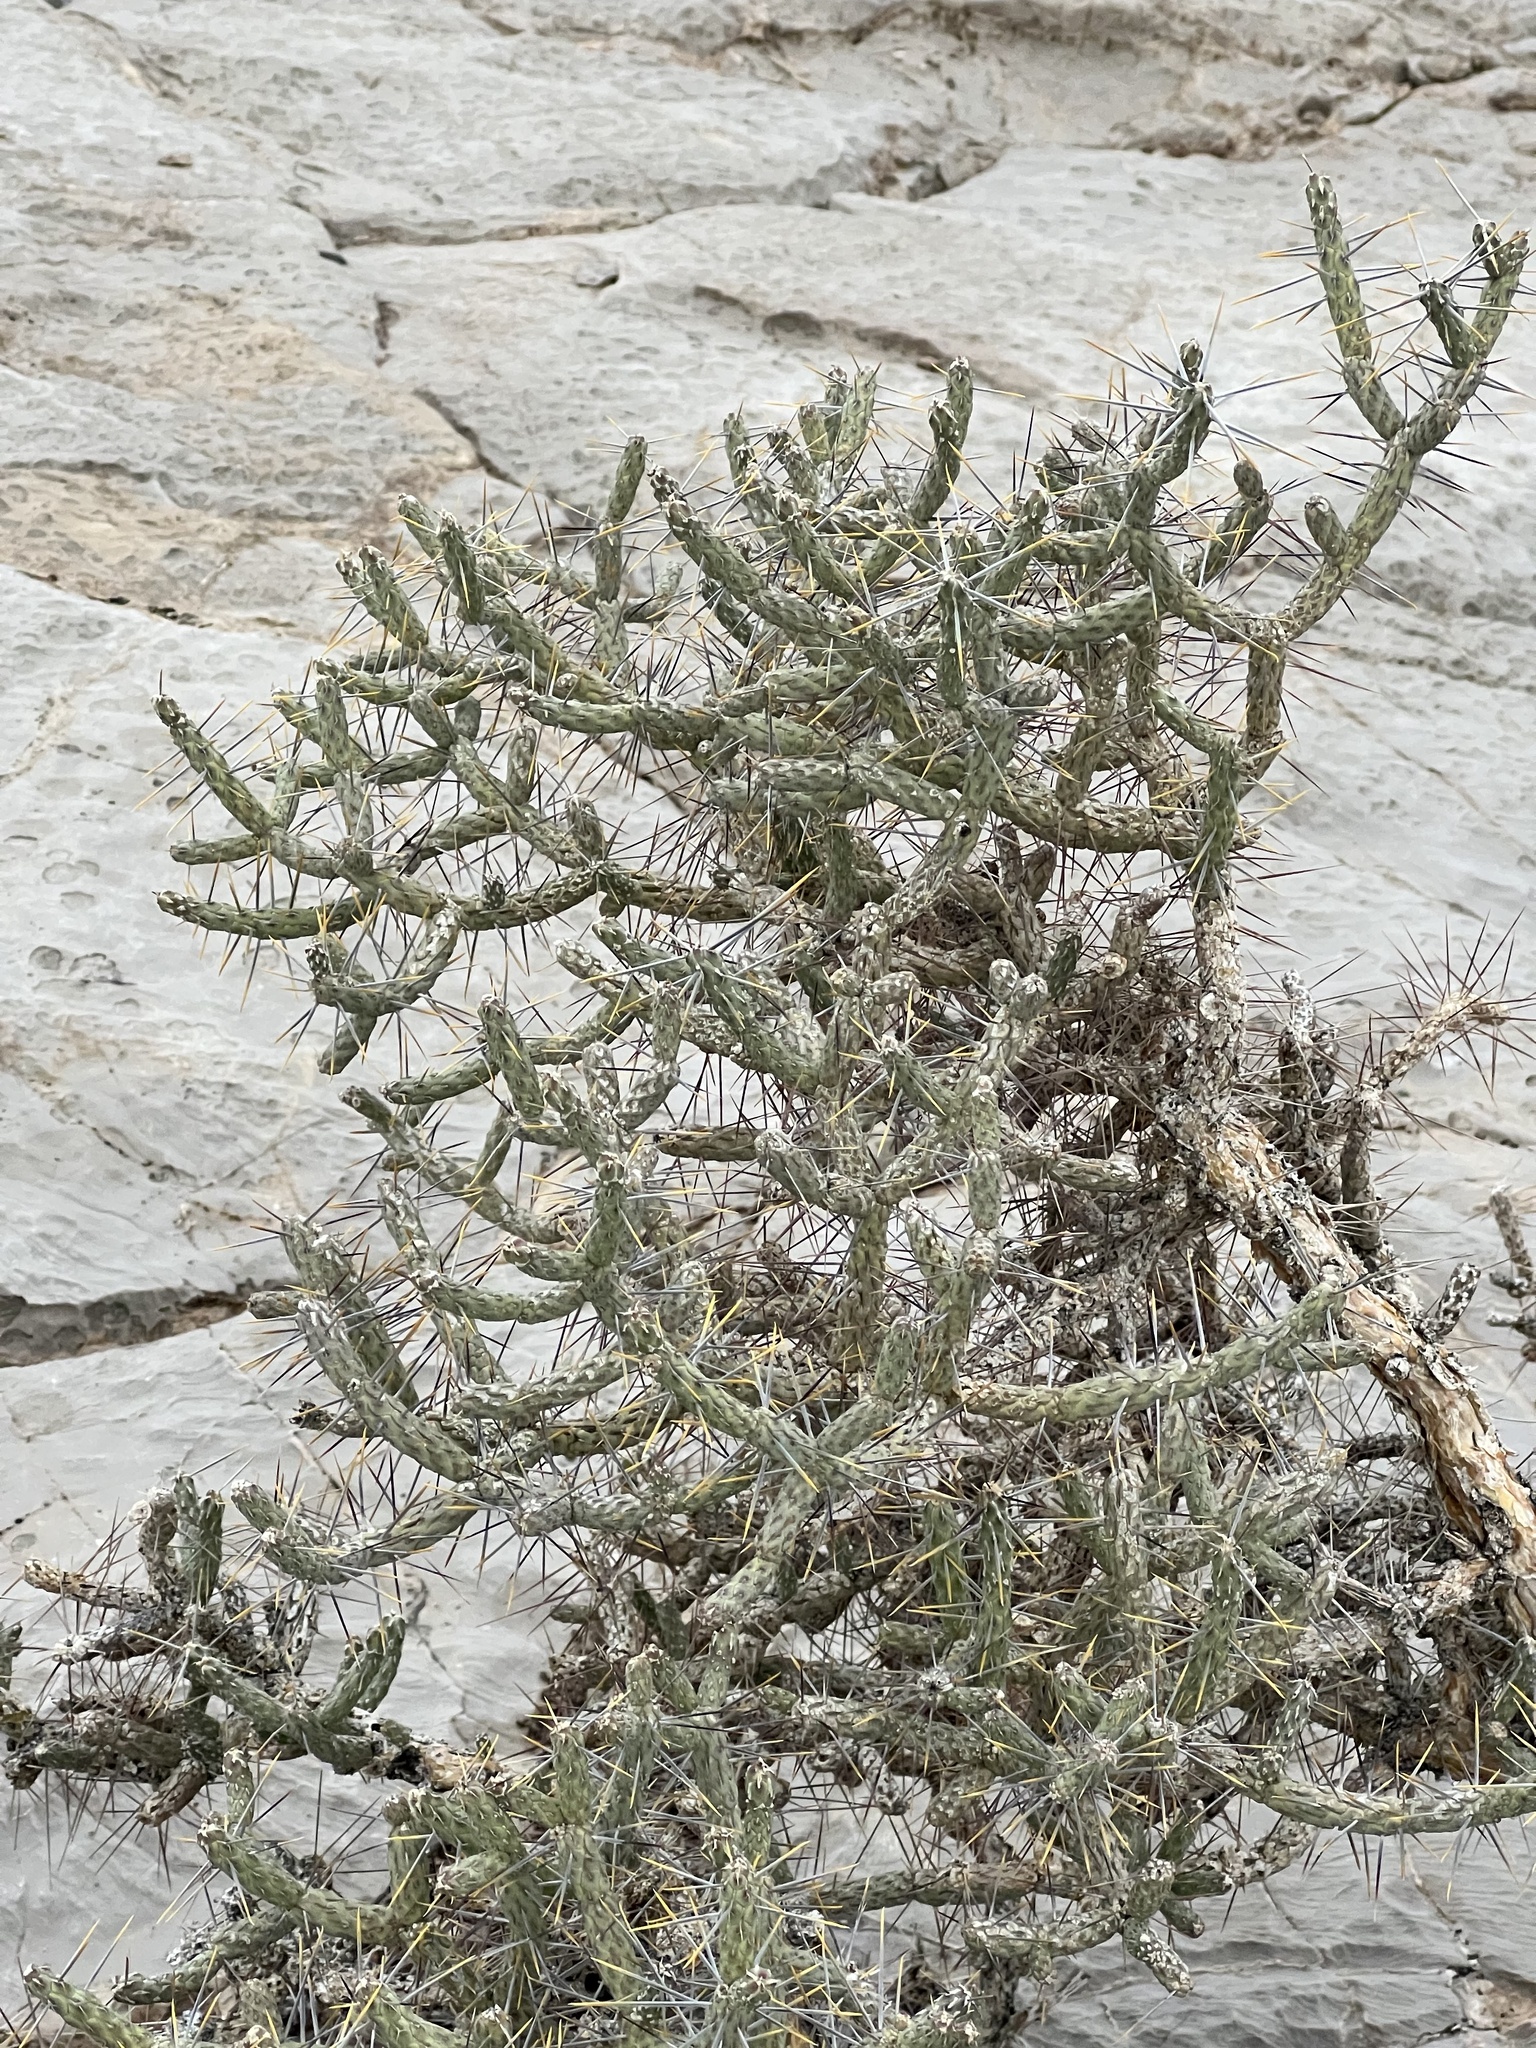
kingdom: Plantae
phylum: Tracheophyta
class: Magnoliopsida
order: Caryophyllales
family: Cactaceae
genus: Cylindropuntia
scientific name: Cylindropuntia ramosissima
